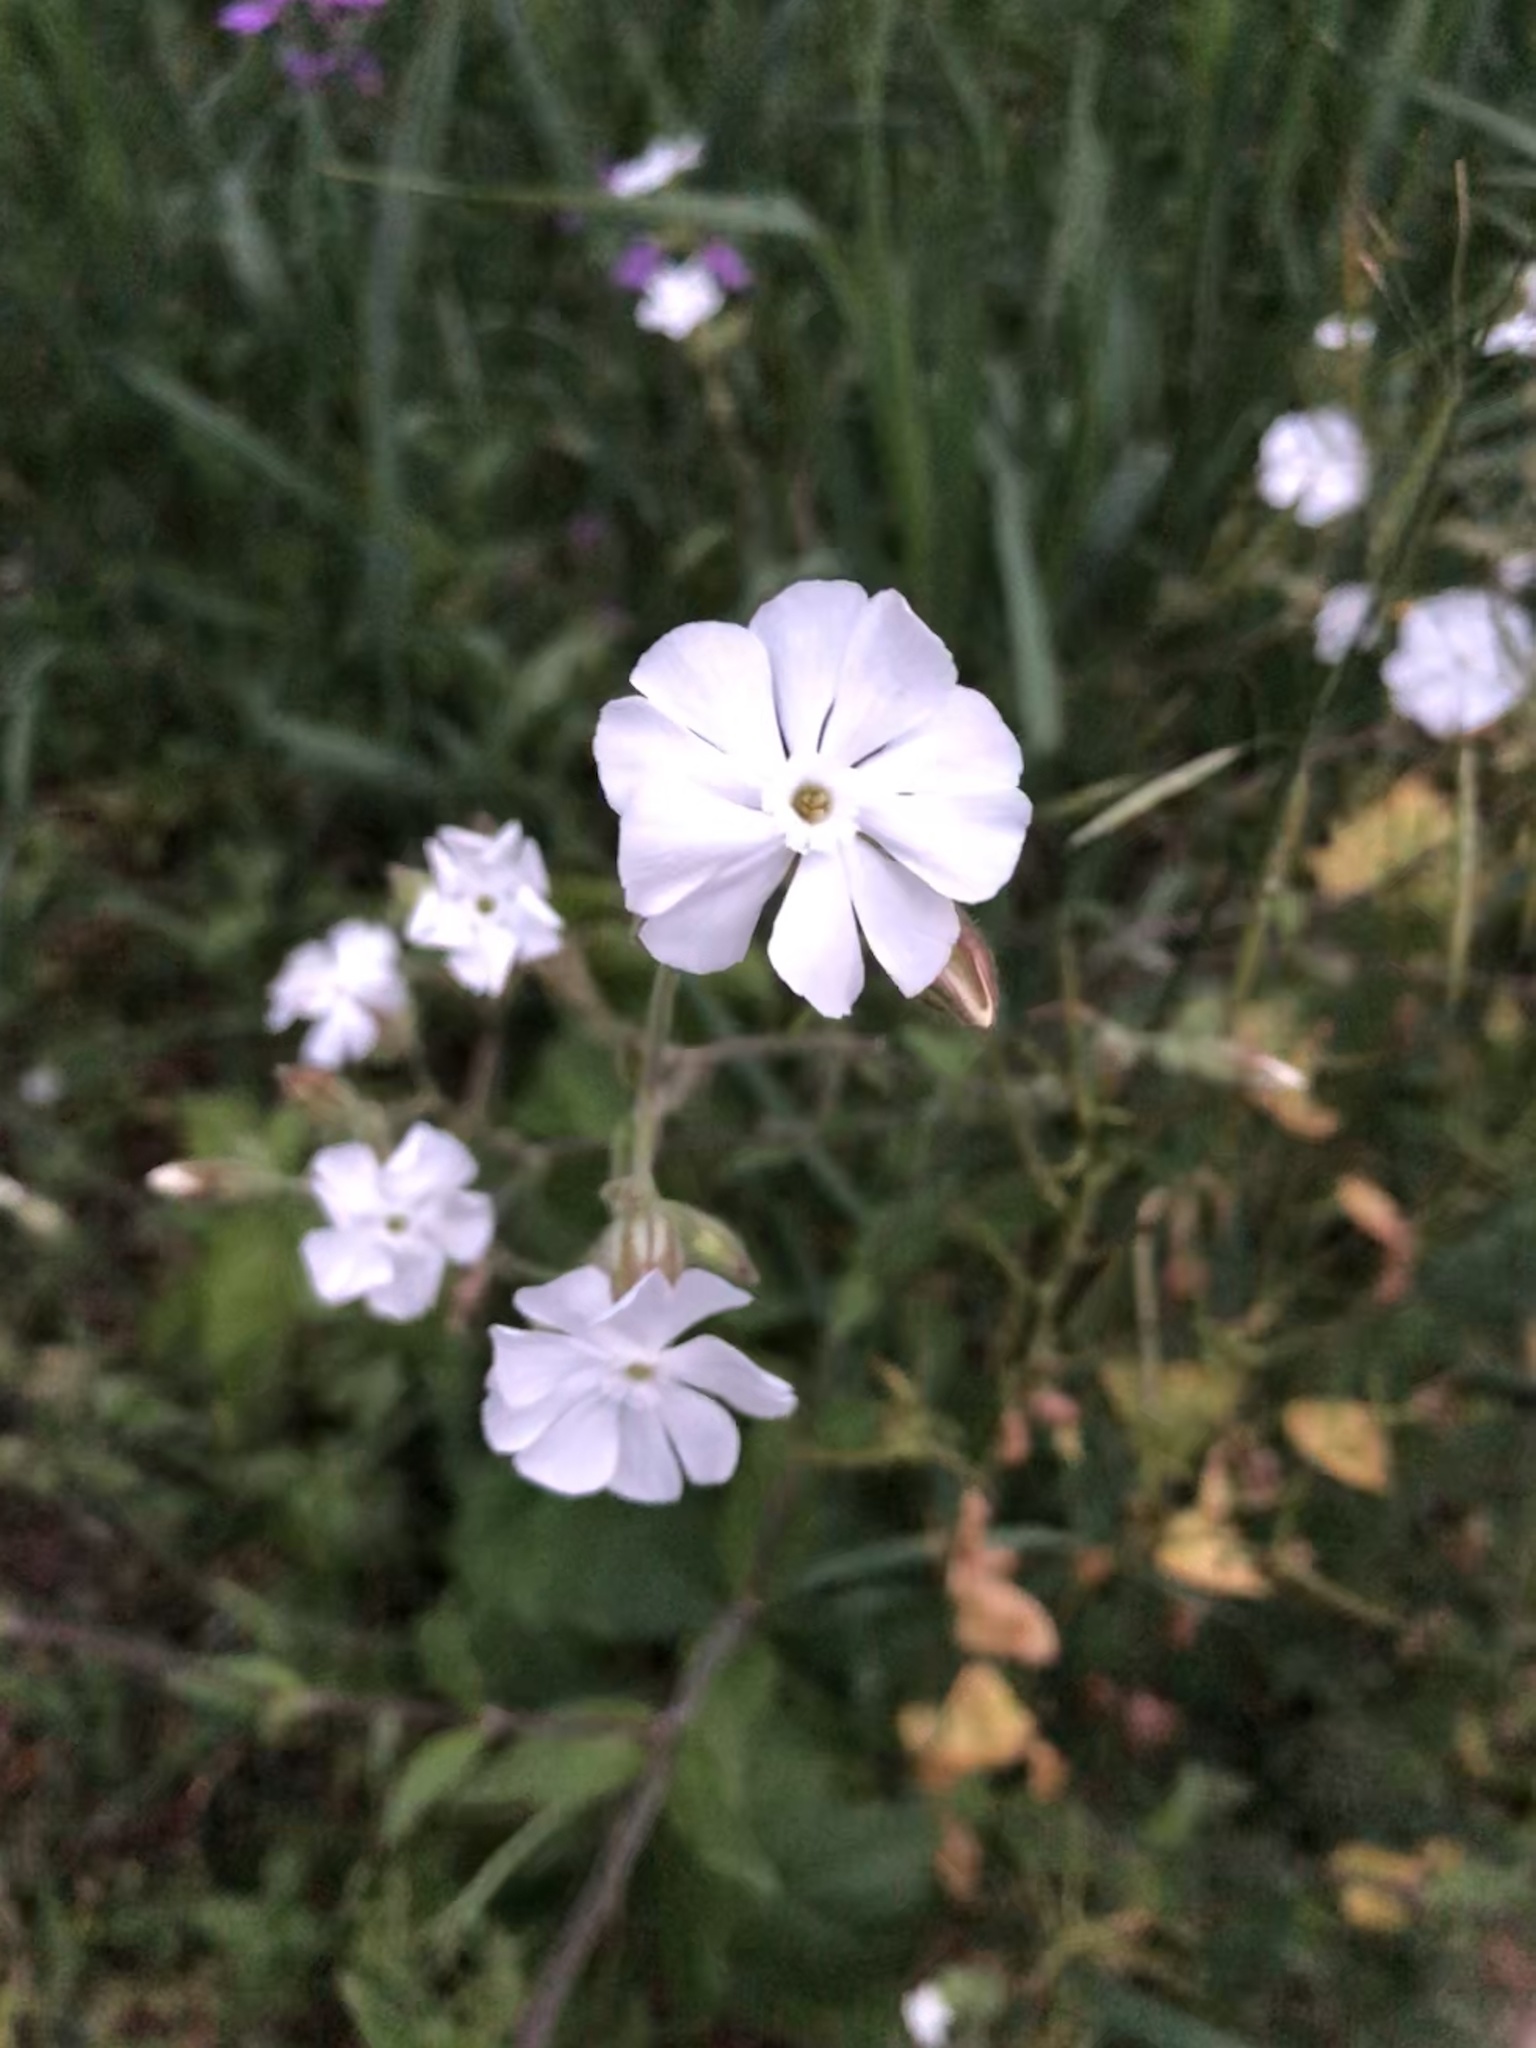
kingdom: Plantae
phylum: Tracheophyta
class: Magnoliopsida
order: Caryophyllales
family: Caryophyllaceae
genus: Silene
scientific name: Silene latifolia
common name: White campion
